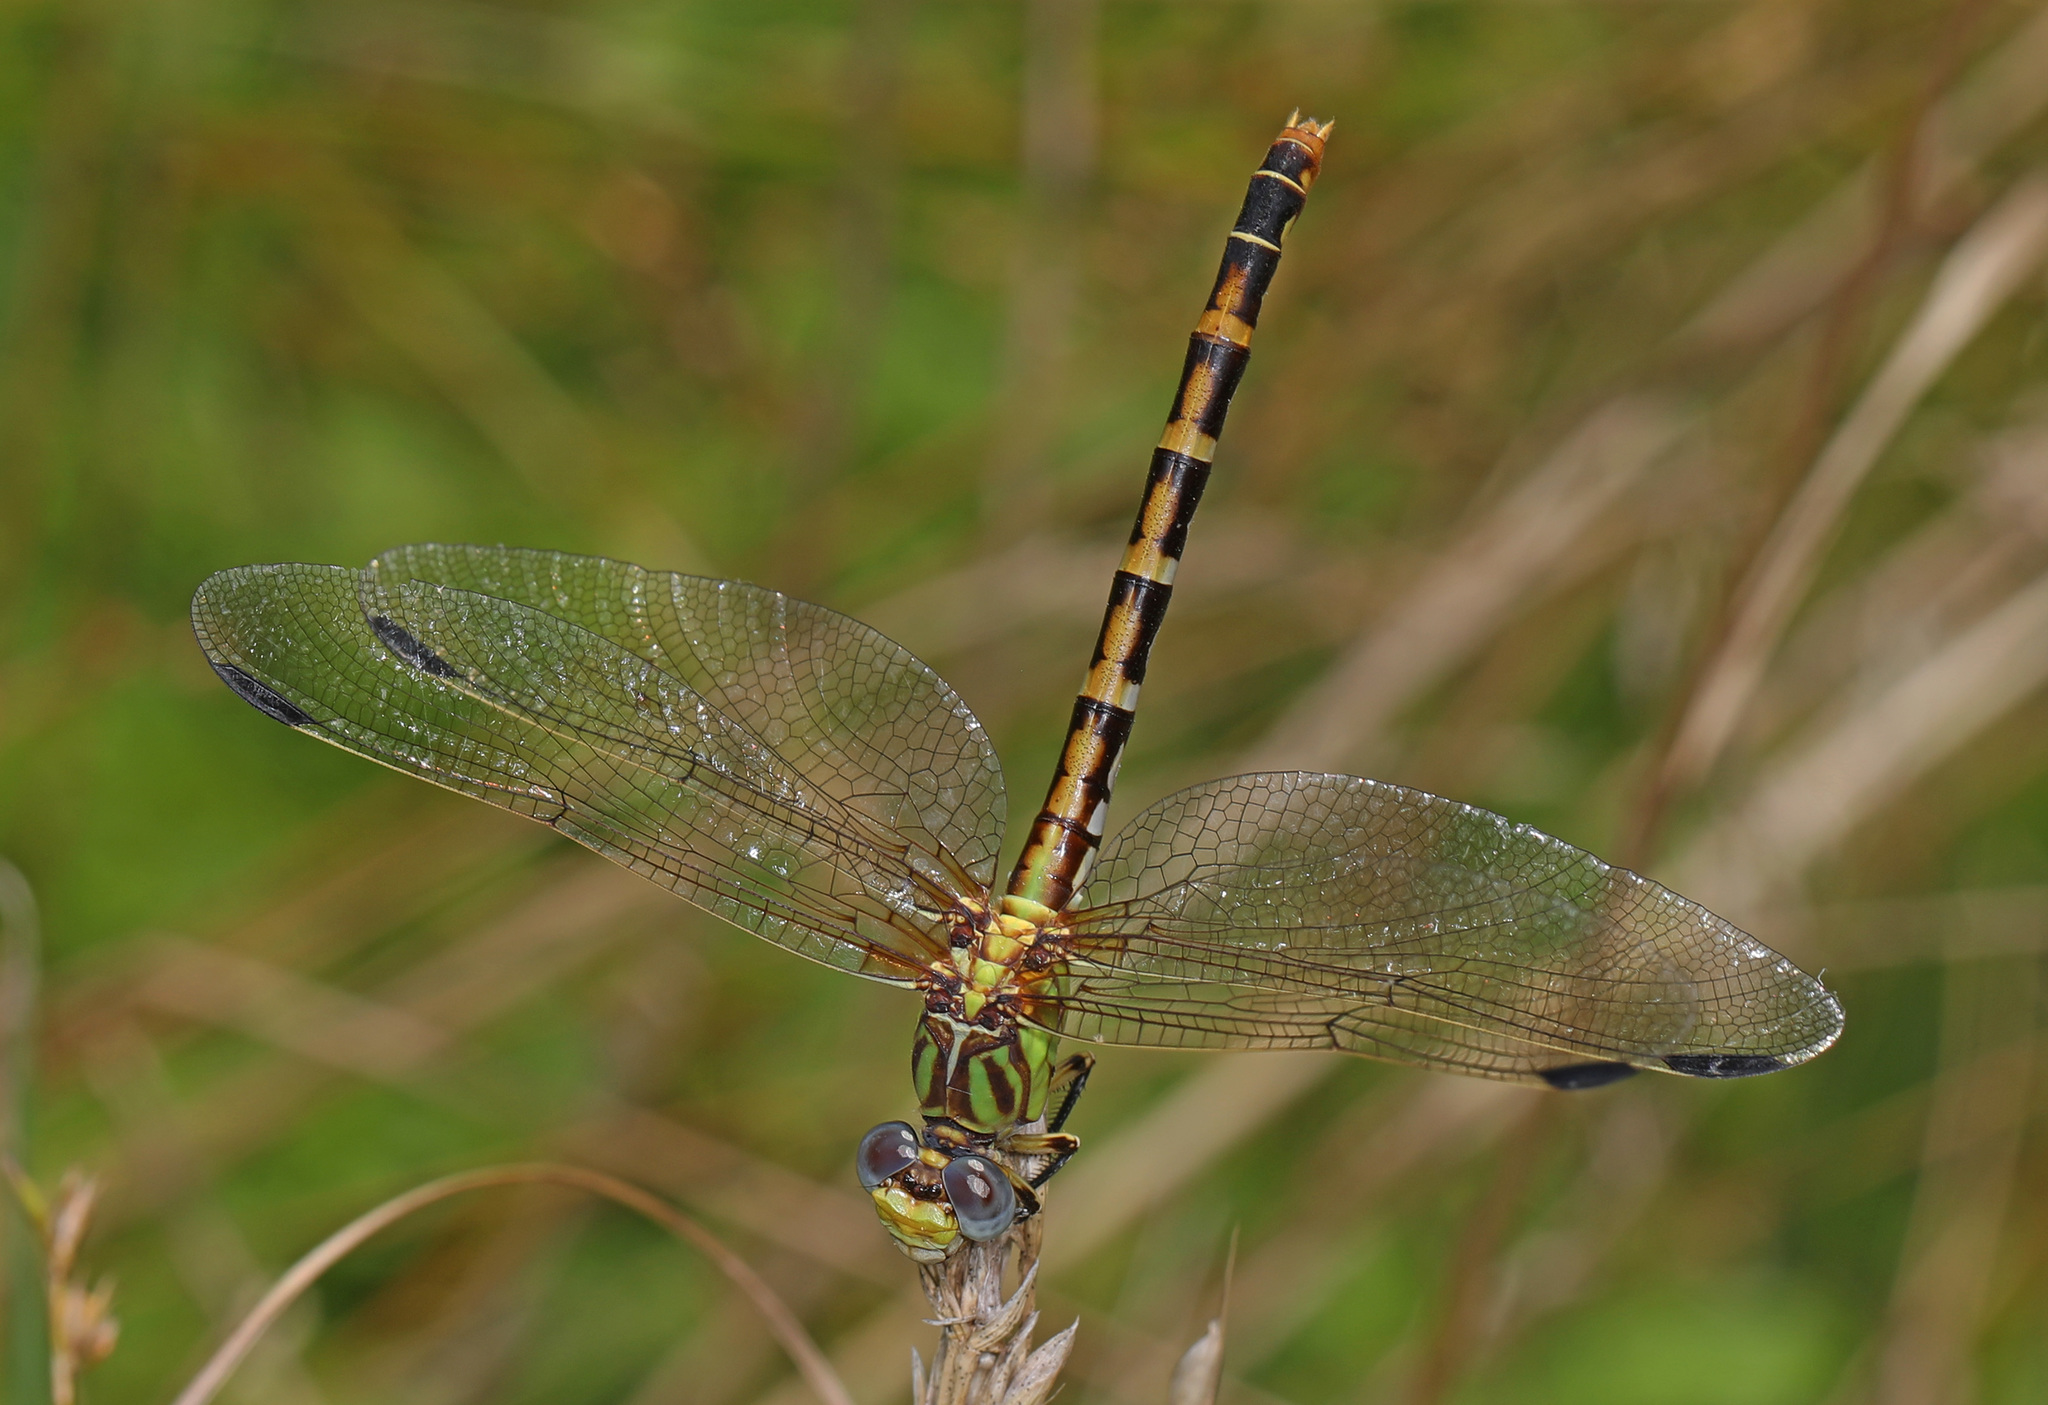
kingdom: Animalia
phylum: Arthropoda
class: Insecta
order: Odonata
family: Gomphidae
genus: Erpetogomphus
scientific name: Erpetogomphus designatus
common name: Eastern ringtail
